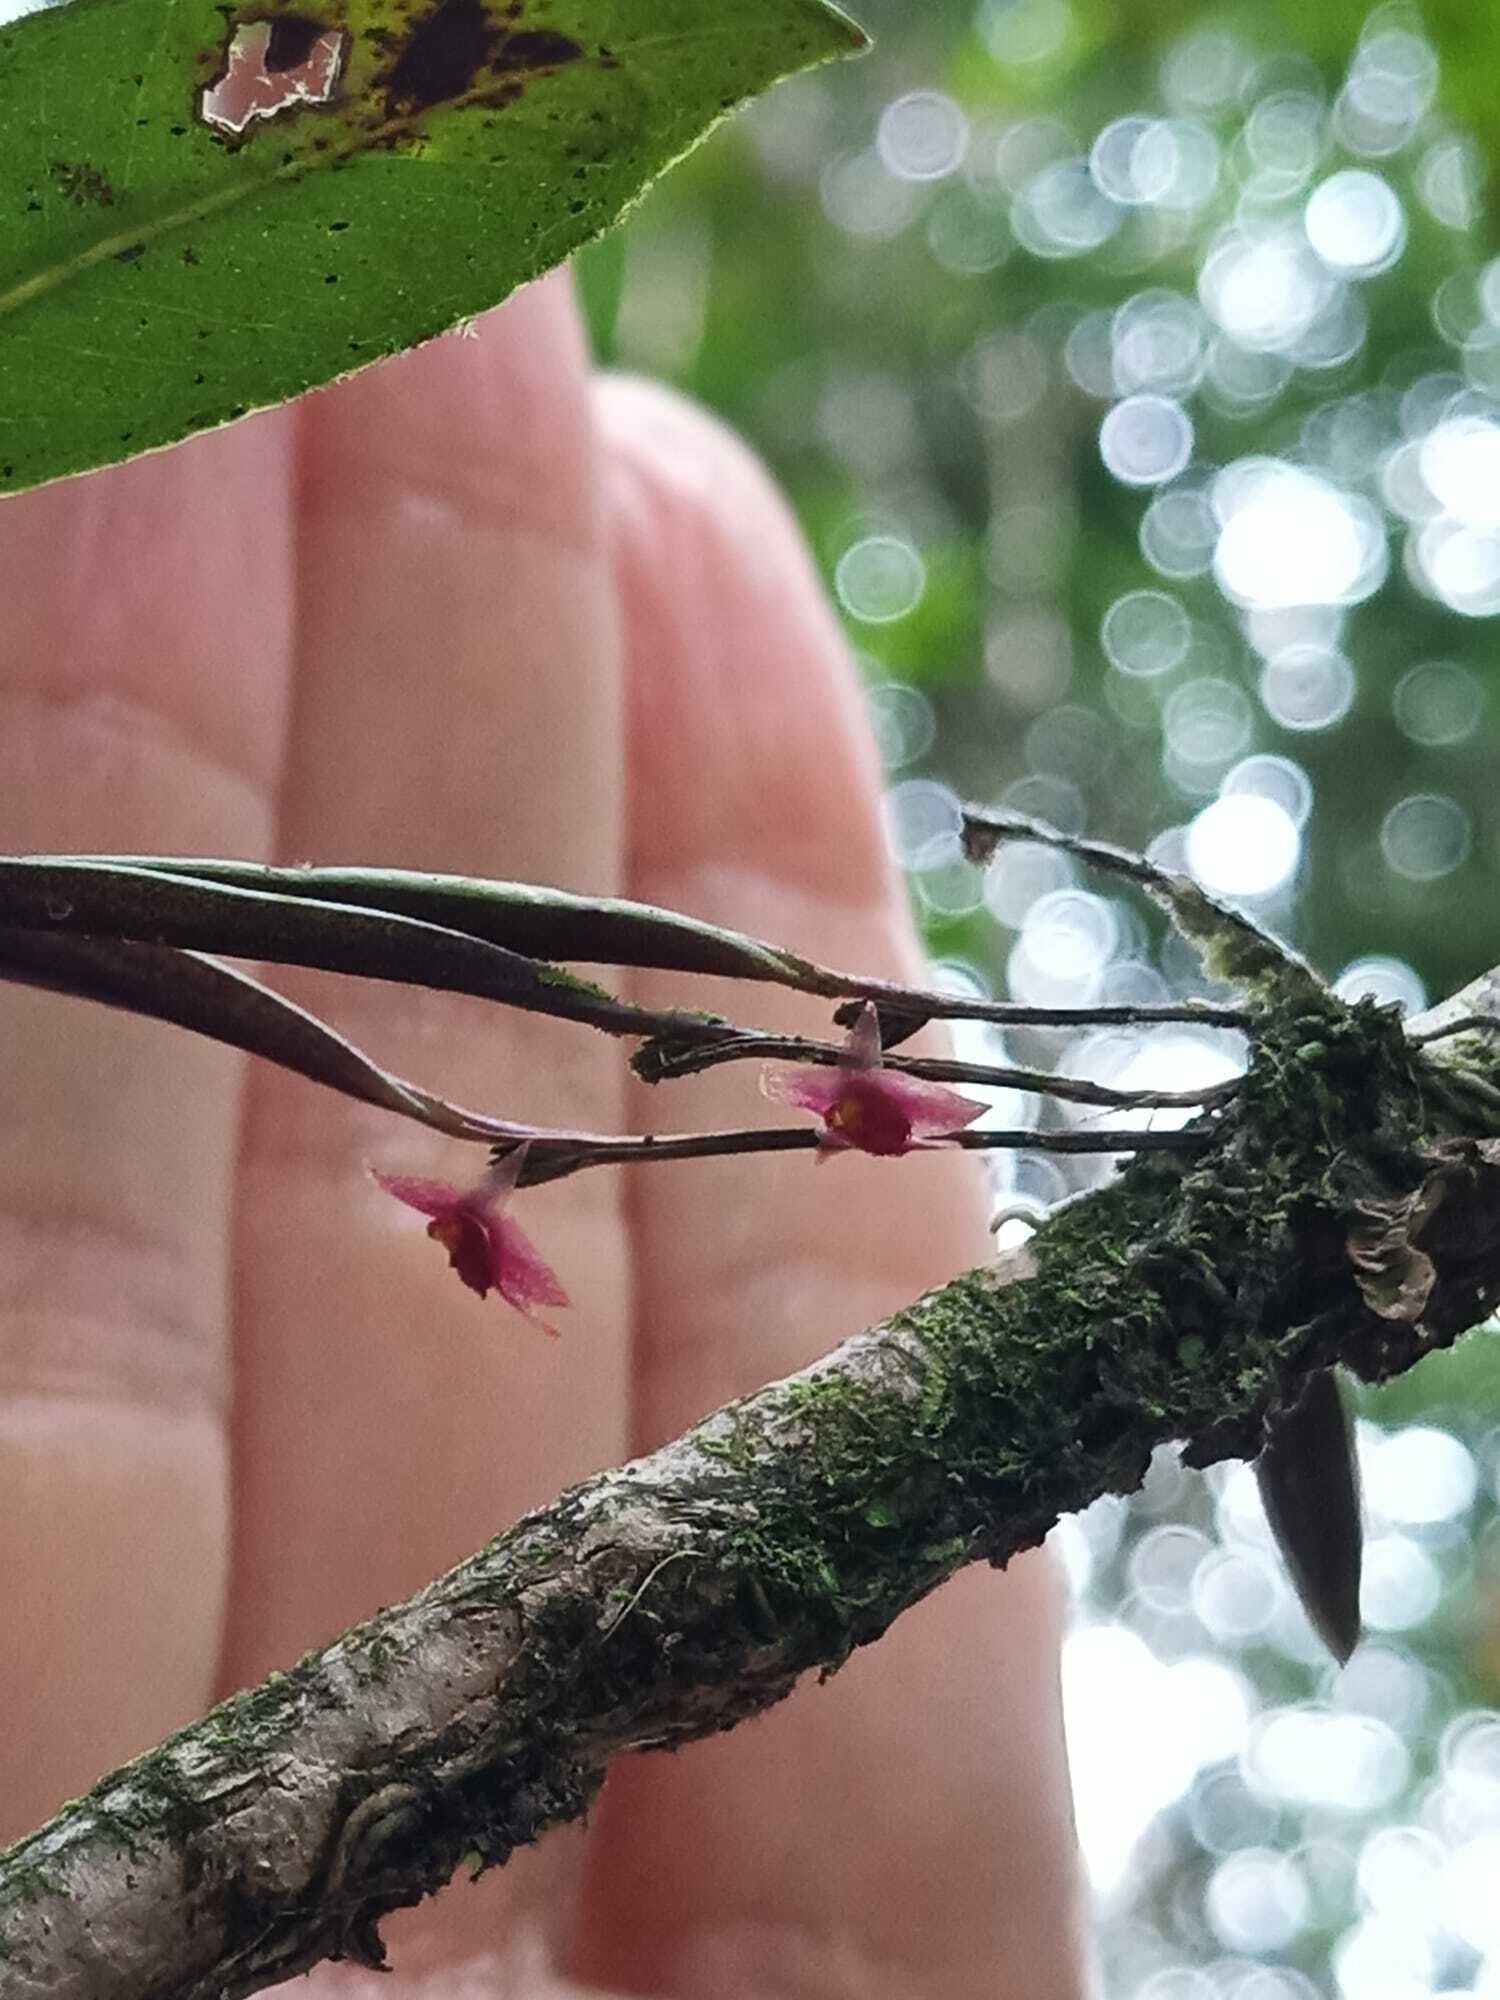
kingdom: Plantae
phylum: Tracheophyta
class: Liliopsida
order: Asparagales
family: Orchidaceae
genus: Octomeria
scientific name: Octomeria sarthouae
